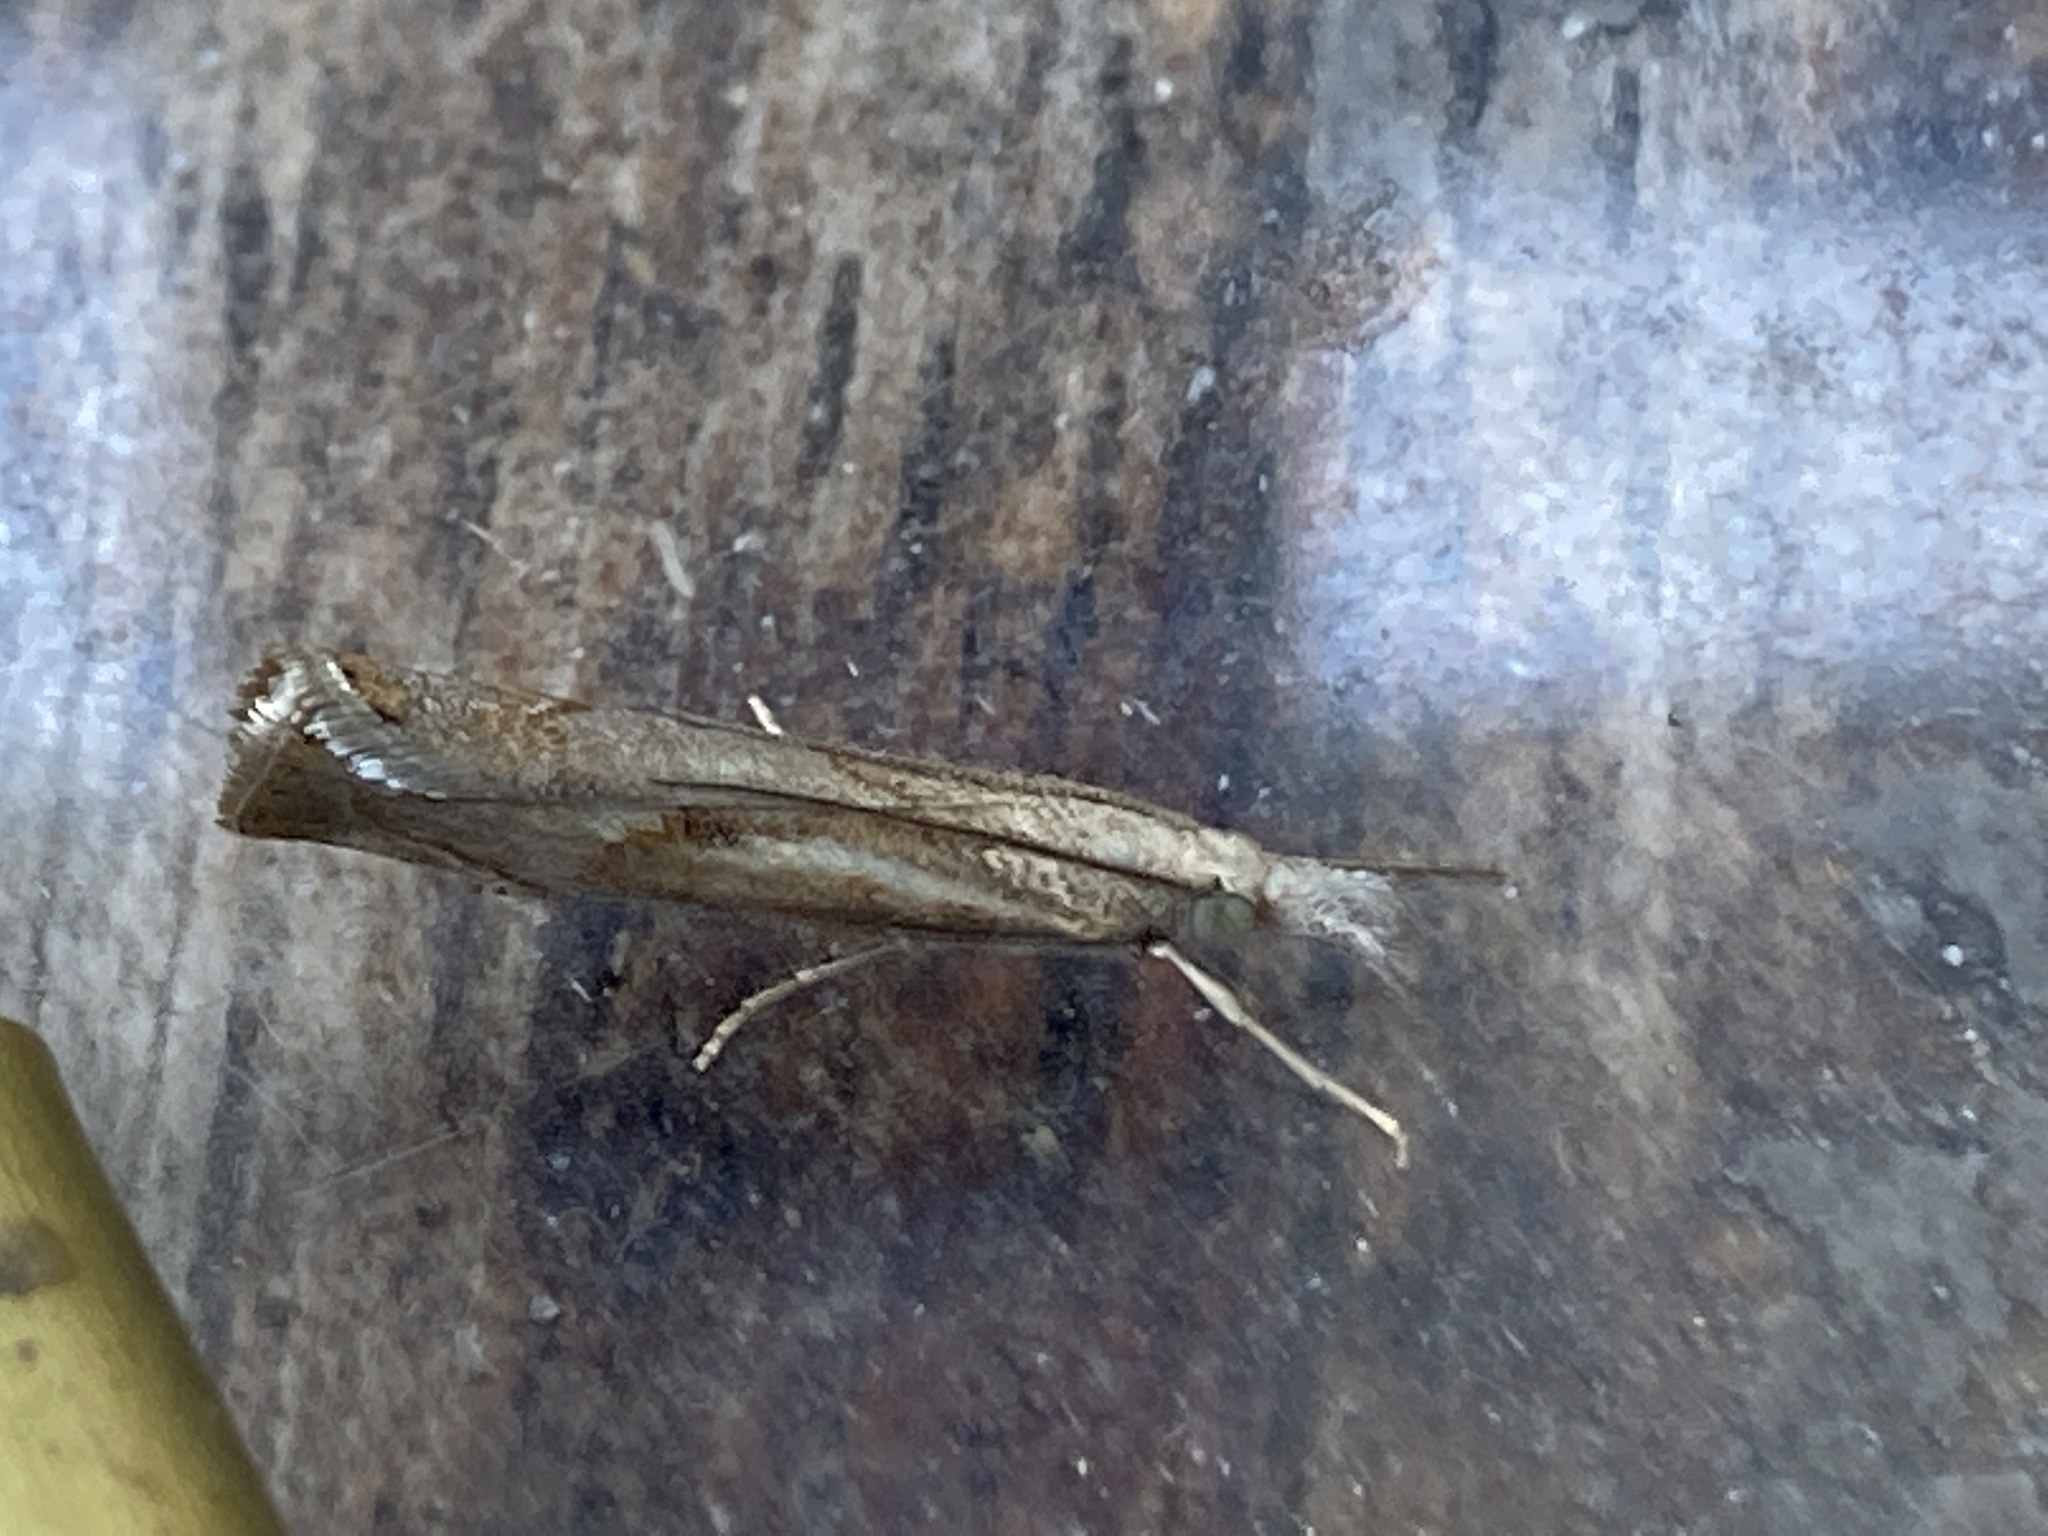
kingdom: Animalia
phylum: Arthropoda
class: Insecta
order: Lepidoptera
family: Crambidae
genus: Agriphila
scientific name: Agriphila geniculea
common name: Elbow-stripe grass-veneer
